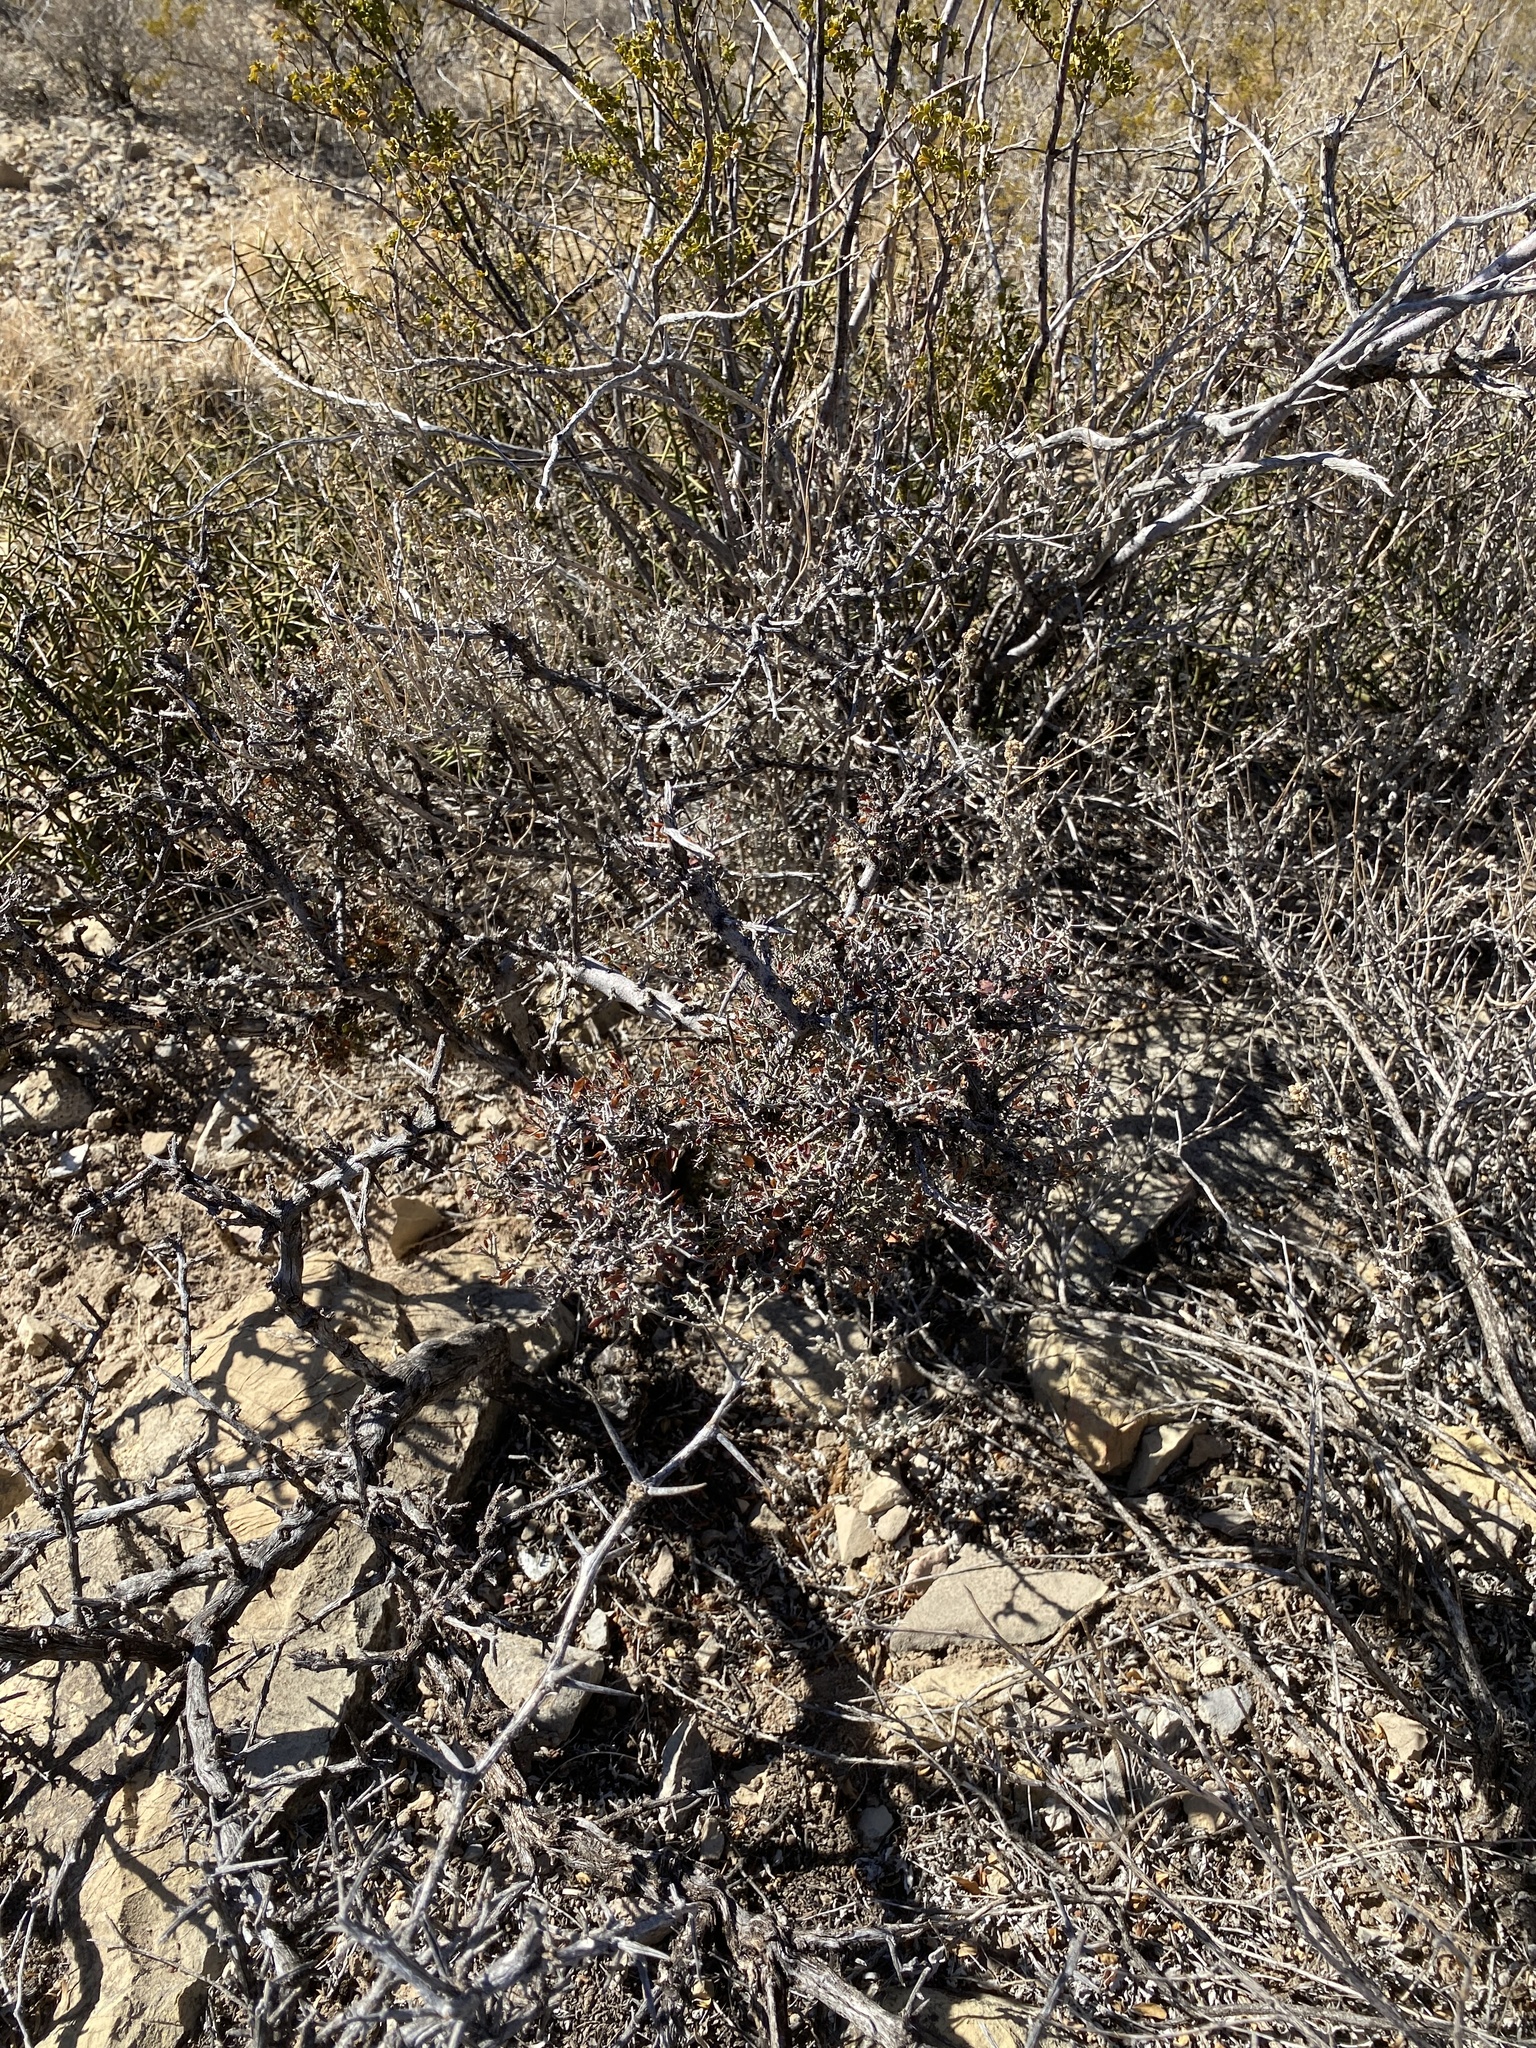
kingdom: Plantae
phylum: Tracheophyta
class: Magnoliopsida
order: Sapindales
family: Anacardiaceae
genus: Rhus
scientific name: Rhus microphylla
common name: Desert sumac
